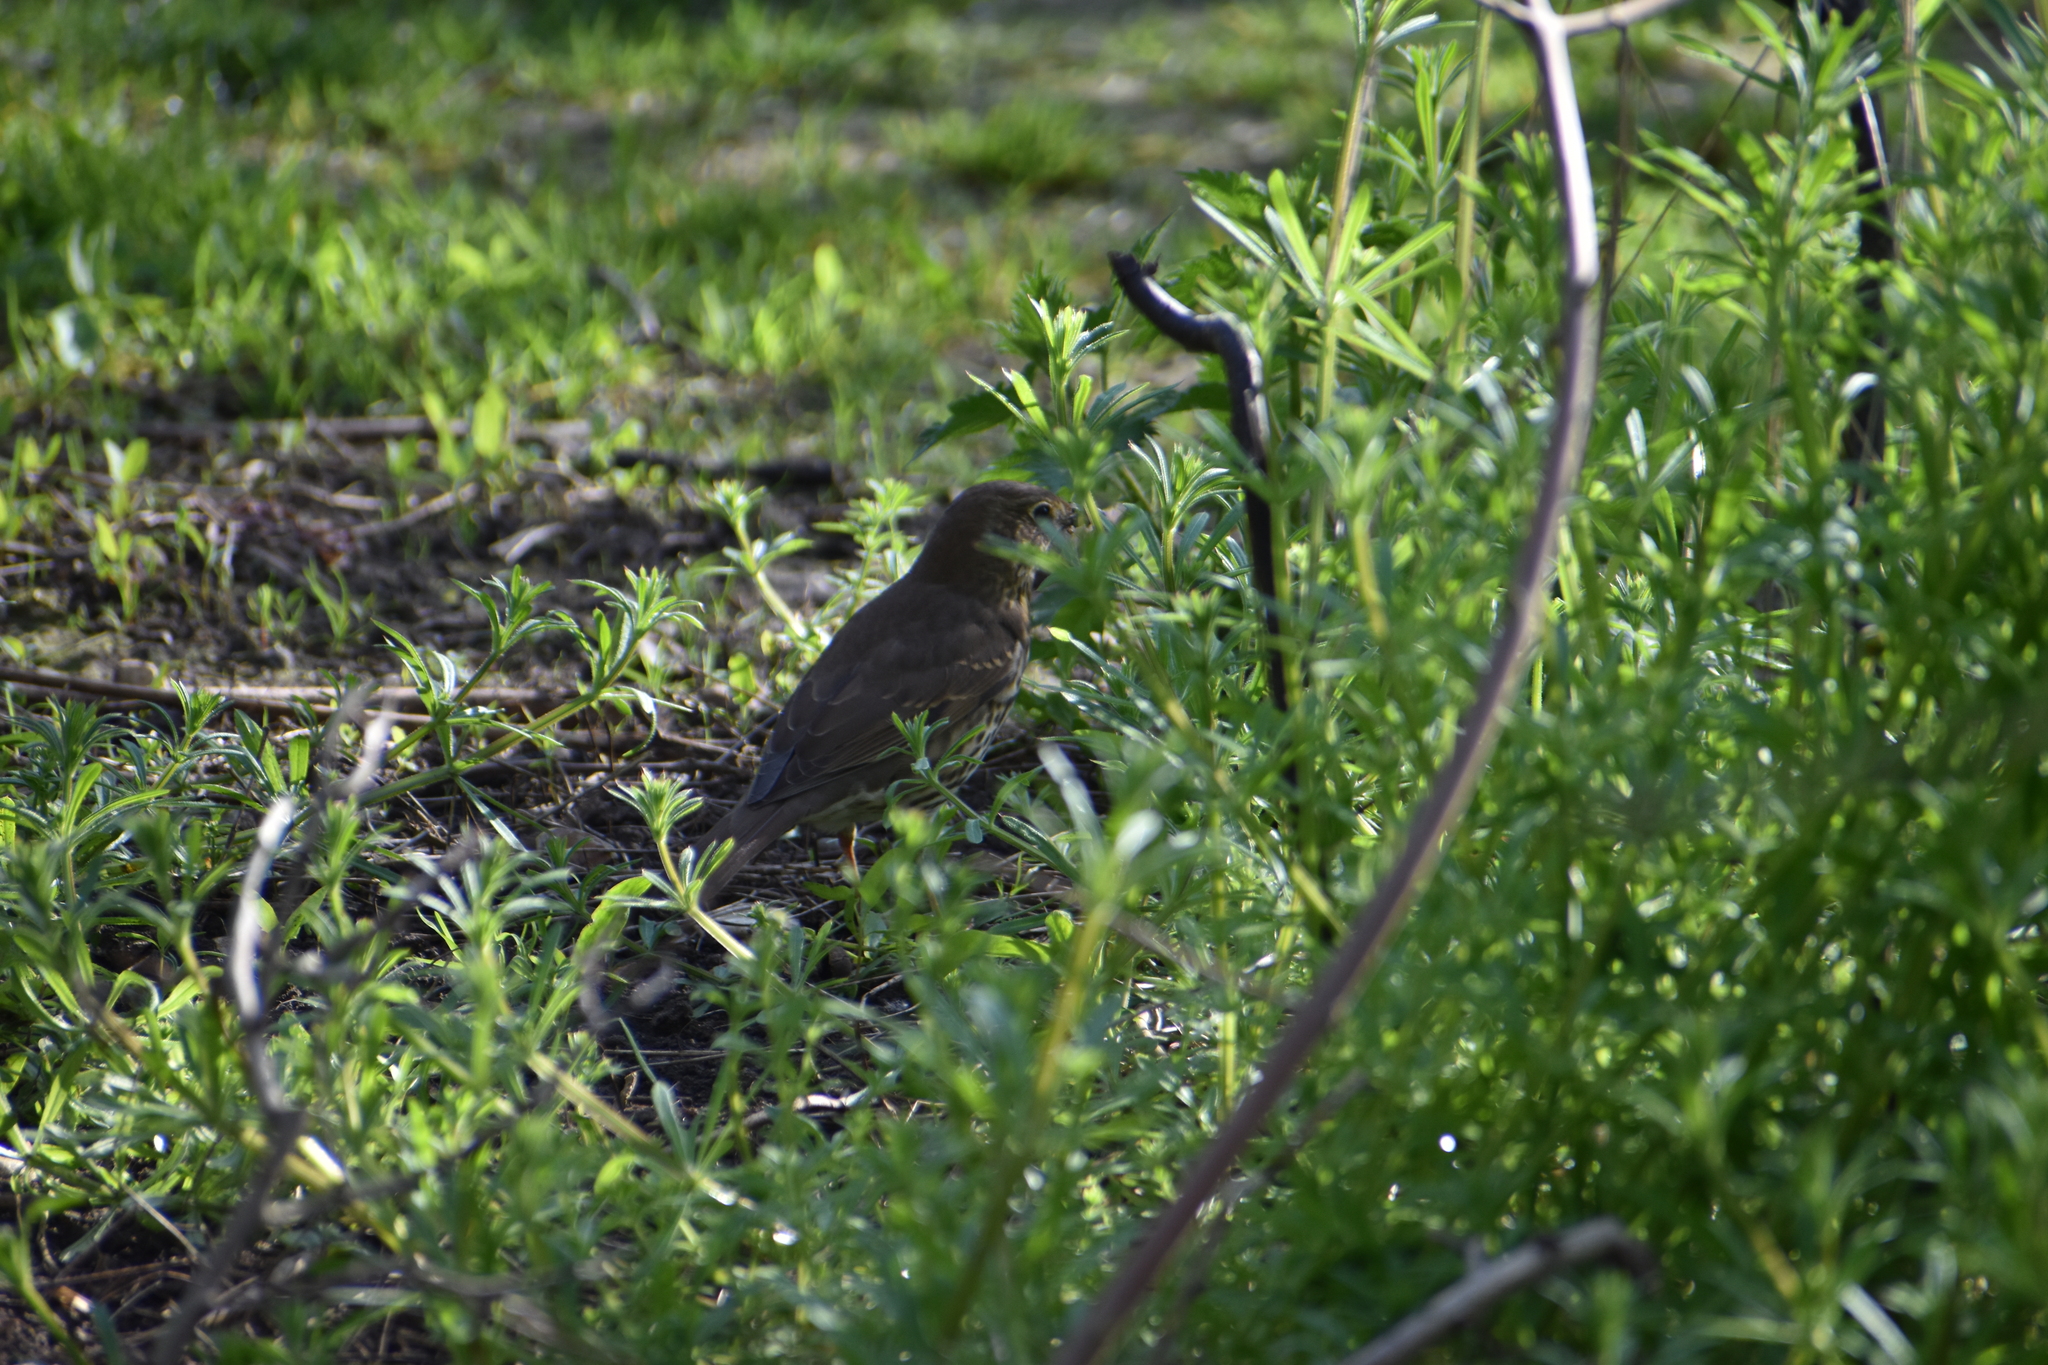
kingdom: Animalia
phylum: Chordata
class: Aves
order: Passeriformes
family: Turdidae
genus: Turdus
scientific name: Turdus philomelos
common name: Song thrush
